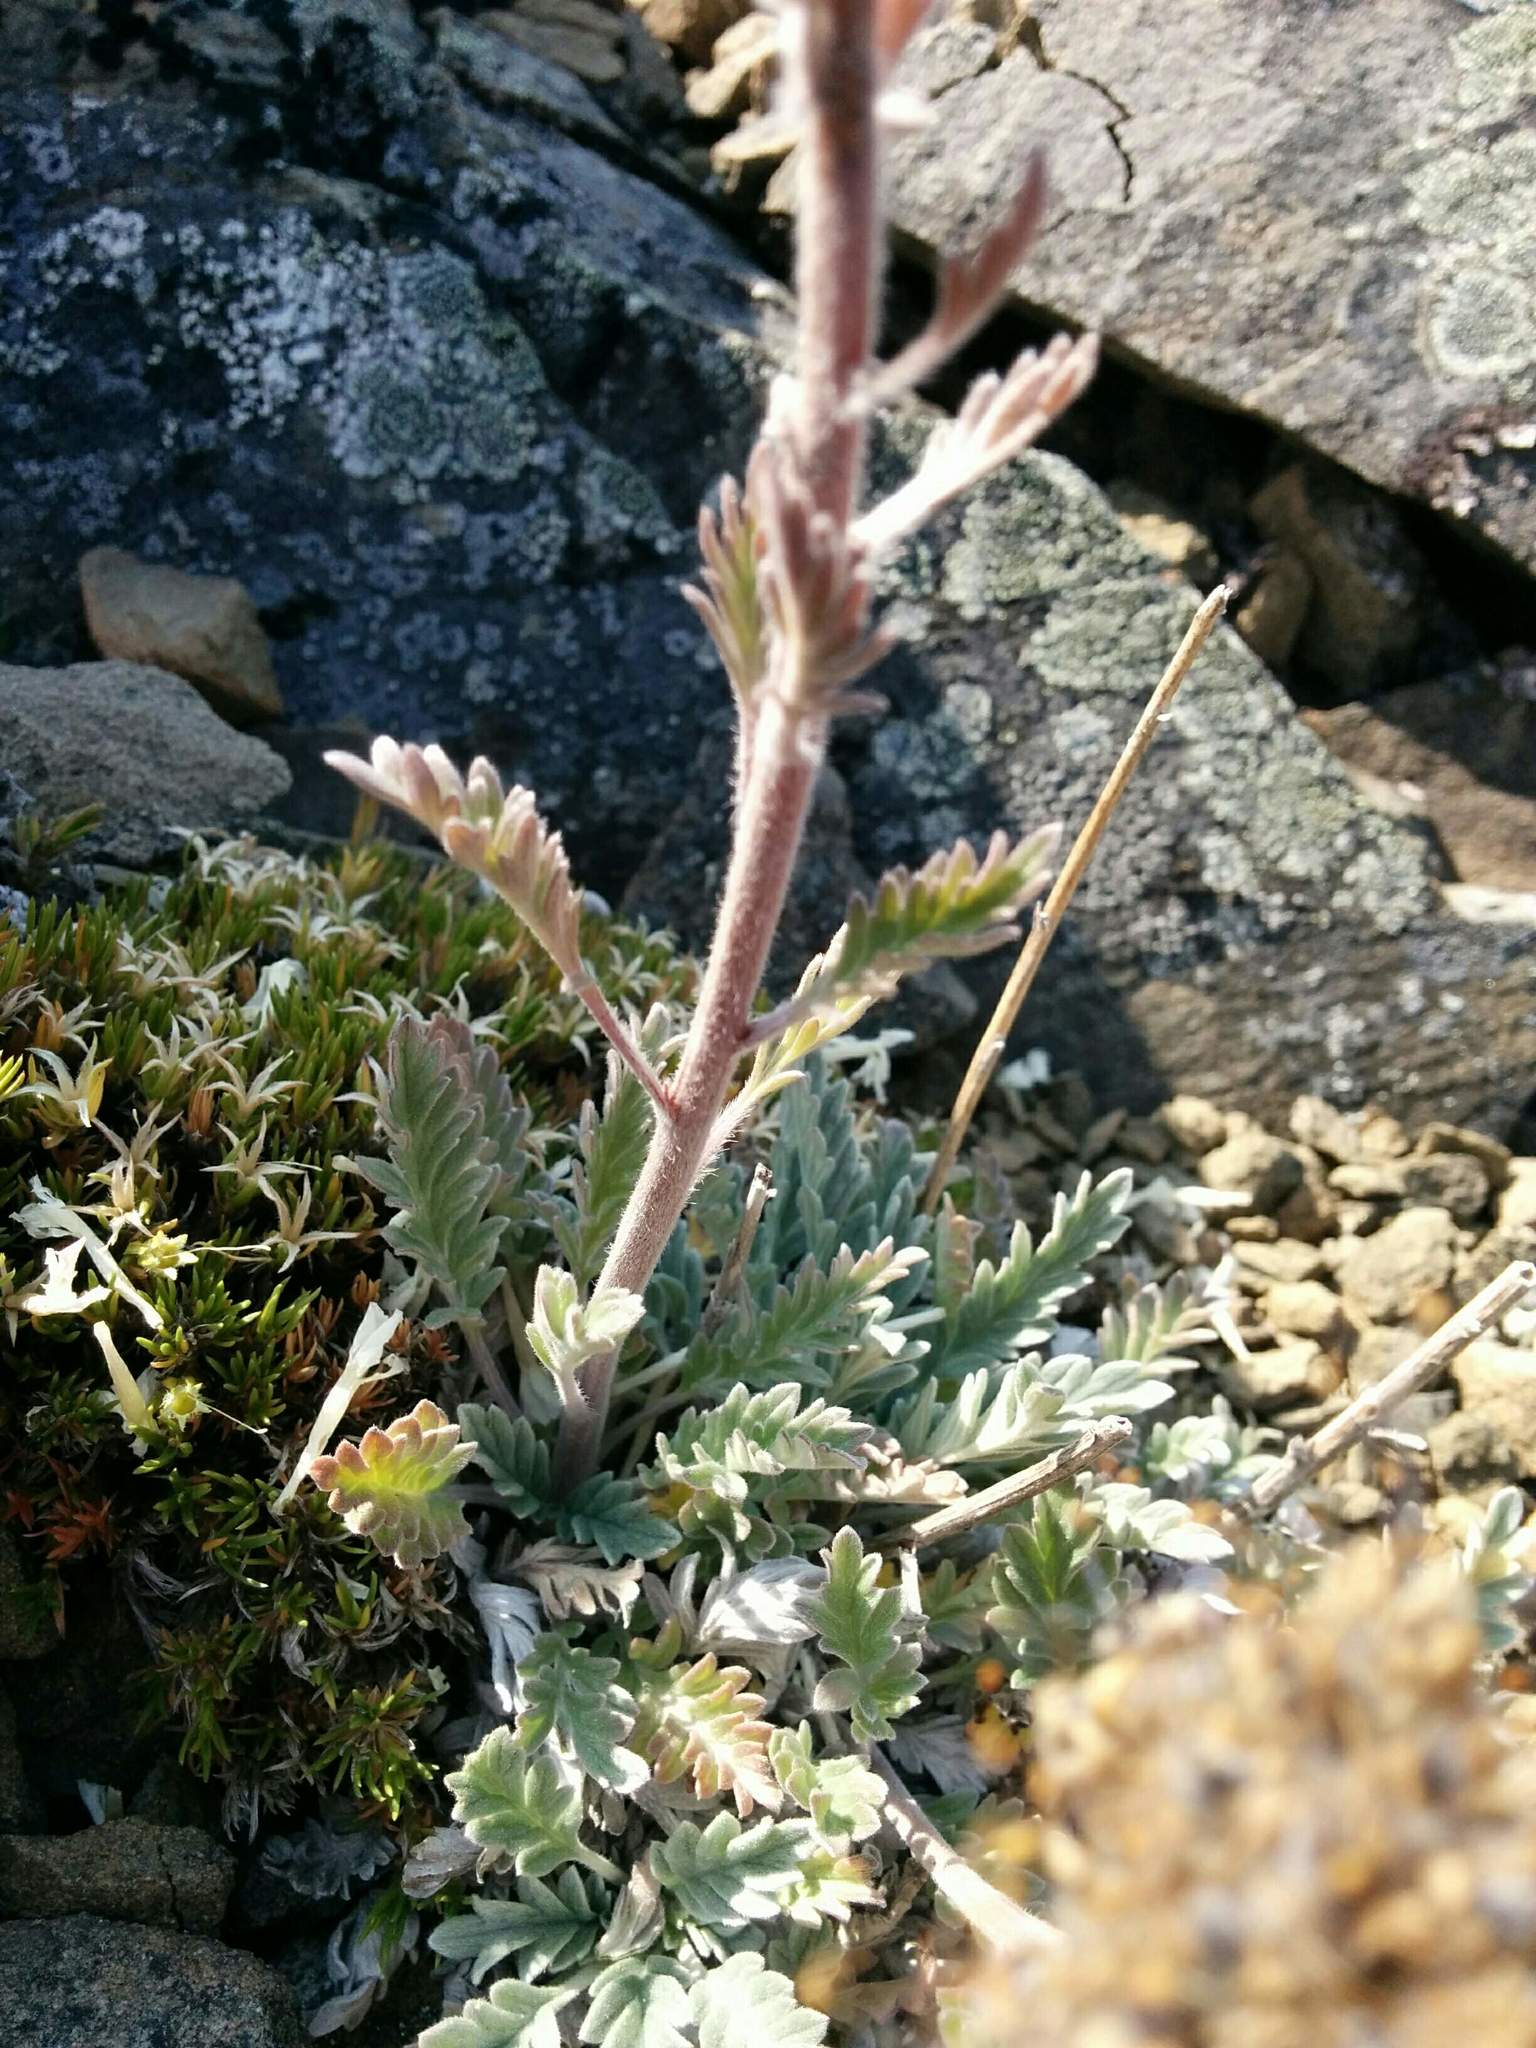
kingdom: Plantae
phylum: Tracheophyta
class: Magnoliopsida
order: Boraginales
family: Hydrophyllaceae
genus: Phacelia
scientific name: Phacelia sericea
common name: Silky phacelia
